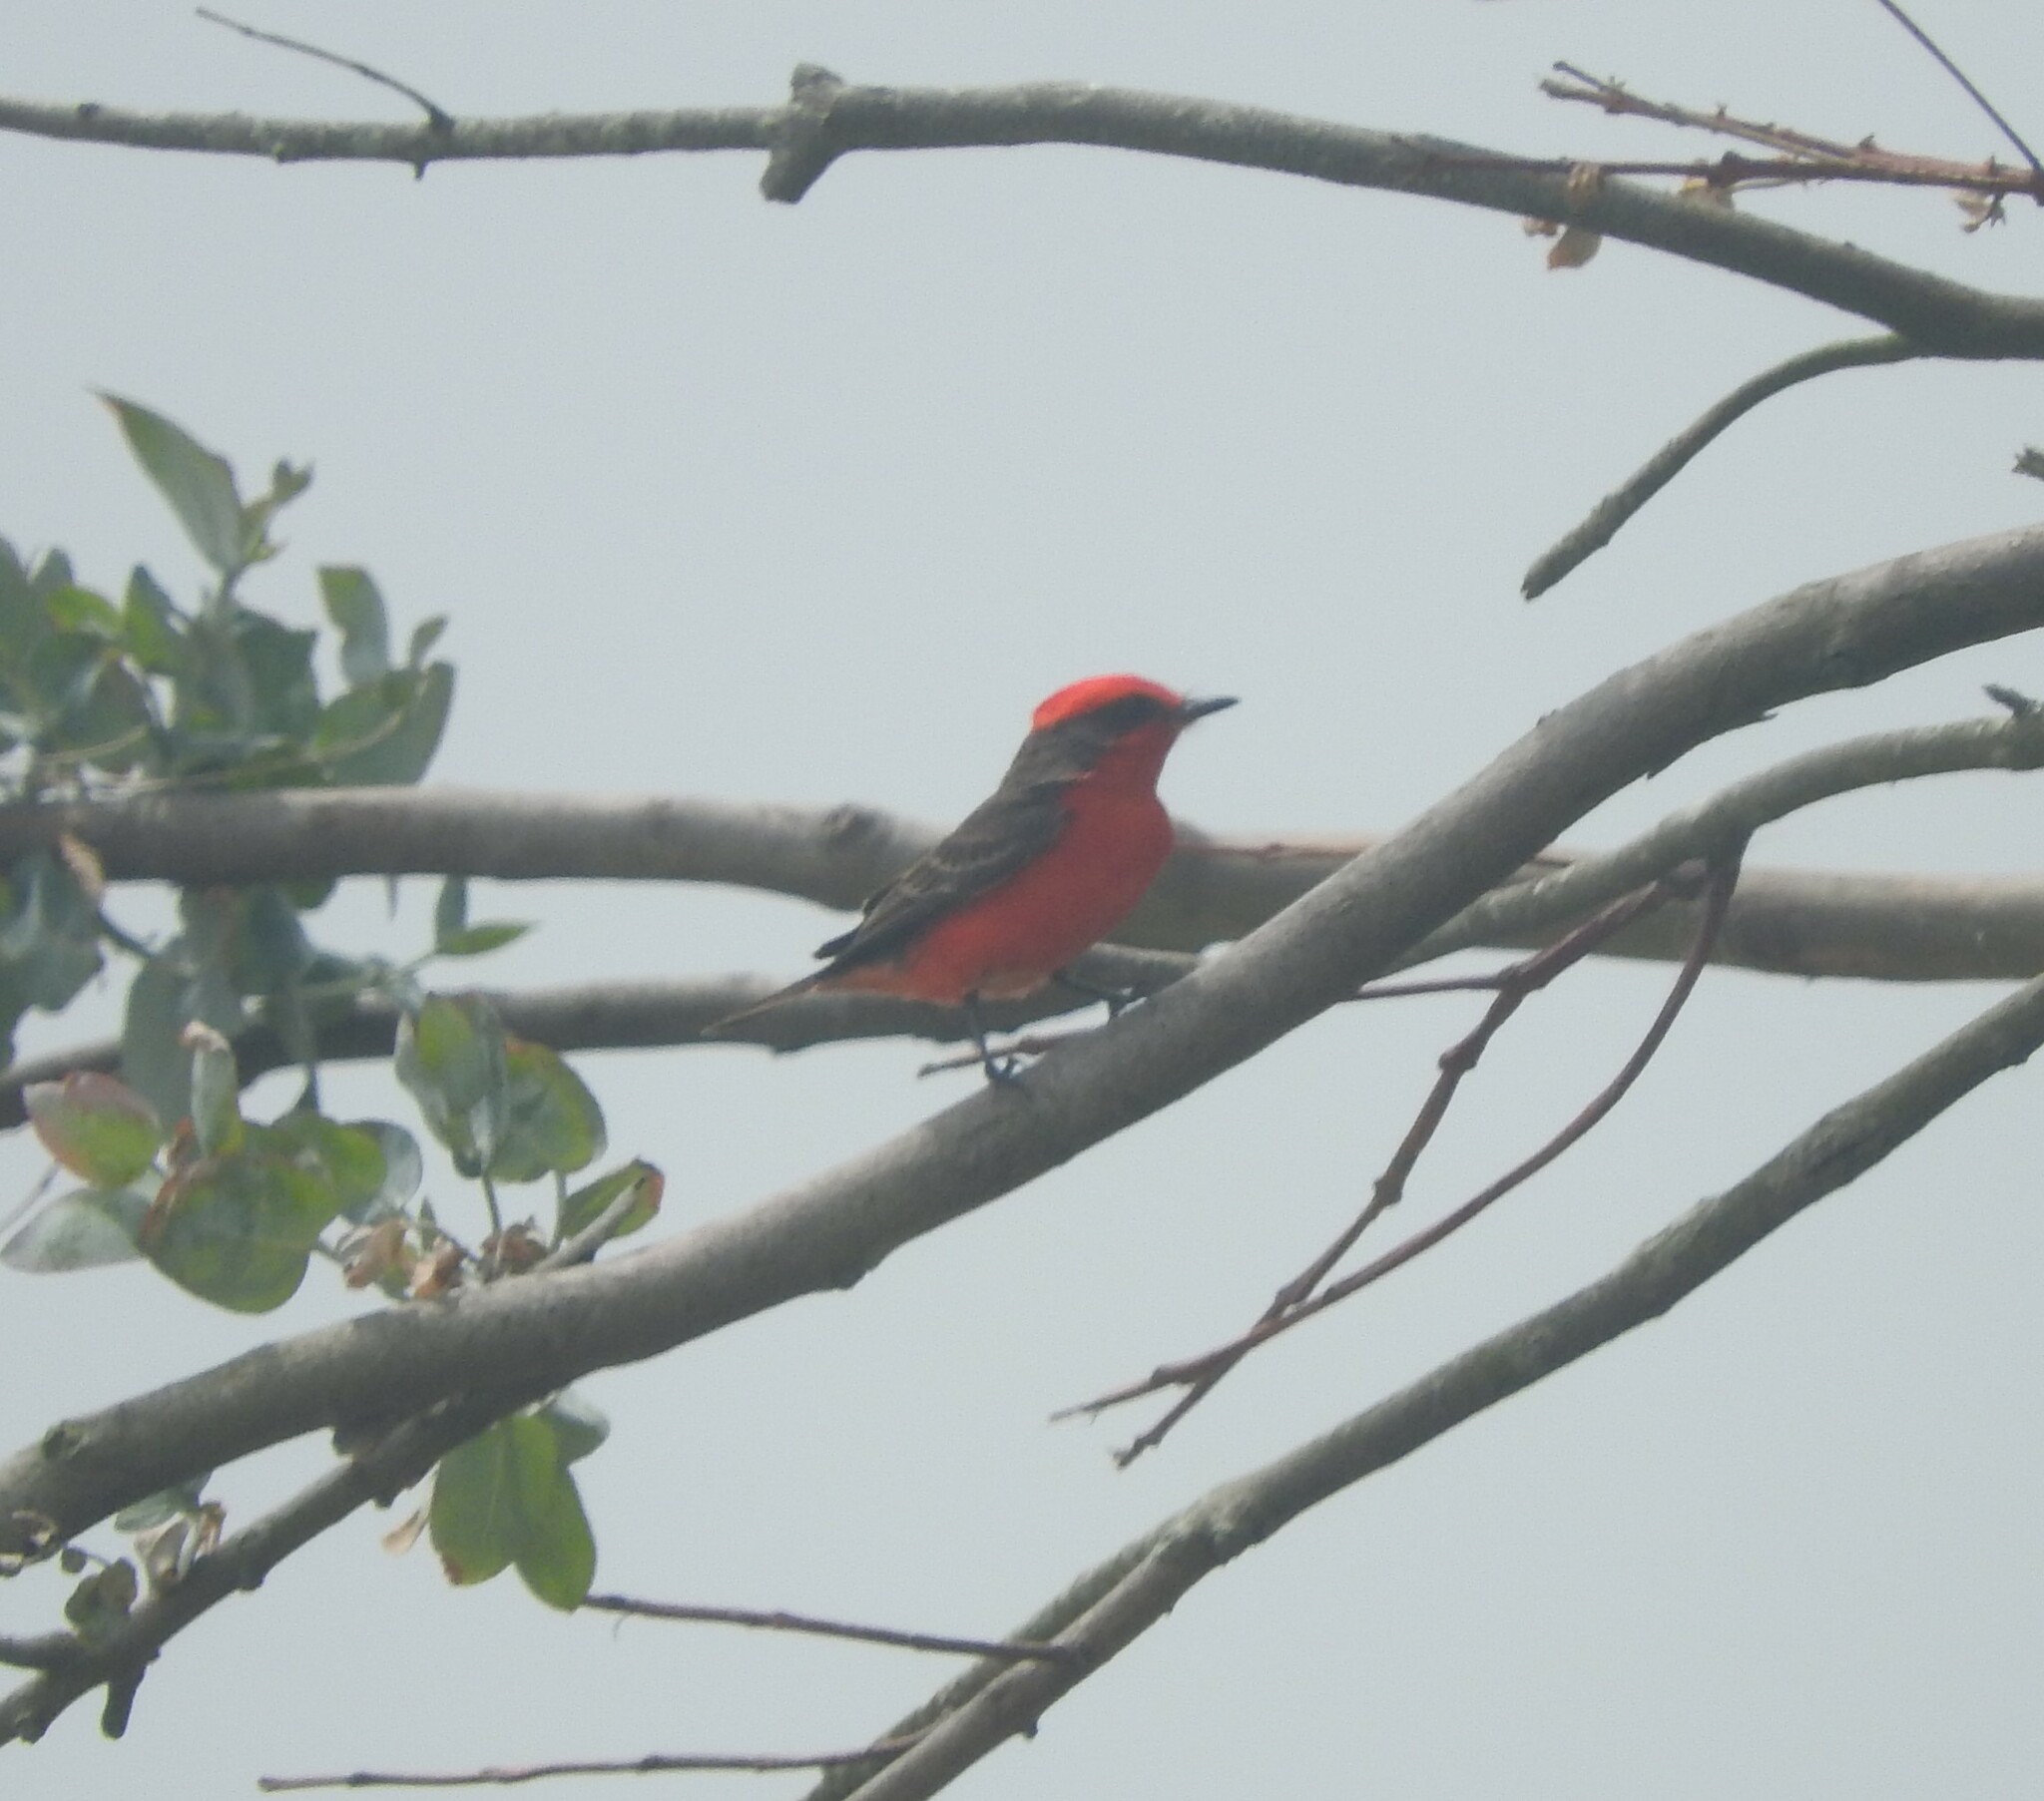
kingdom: Animalia
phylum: Chordata
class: Aves
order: Passeriformes
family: Tyrannidae
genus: Pyrocephalus
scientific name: Pyrocephalus rubinus
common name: Vermilion flycatcher
